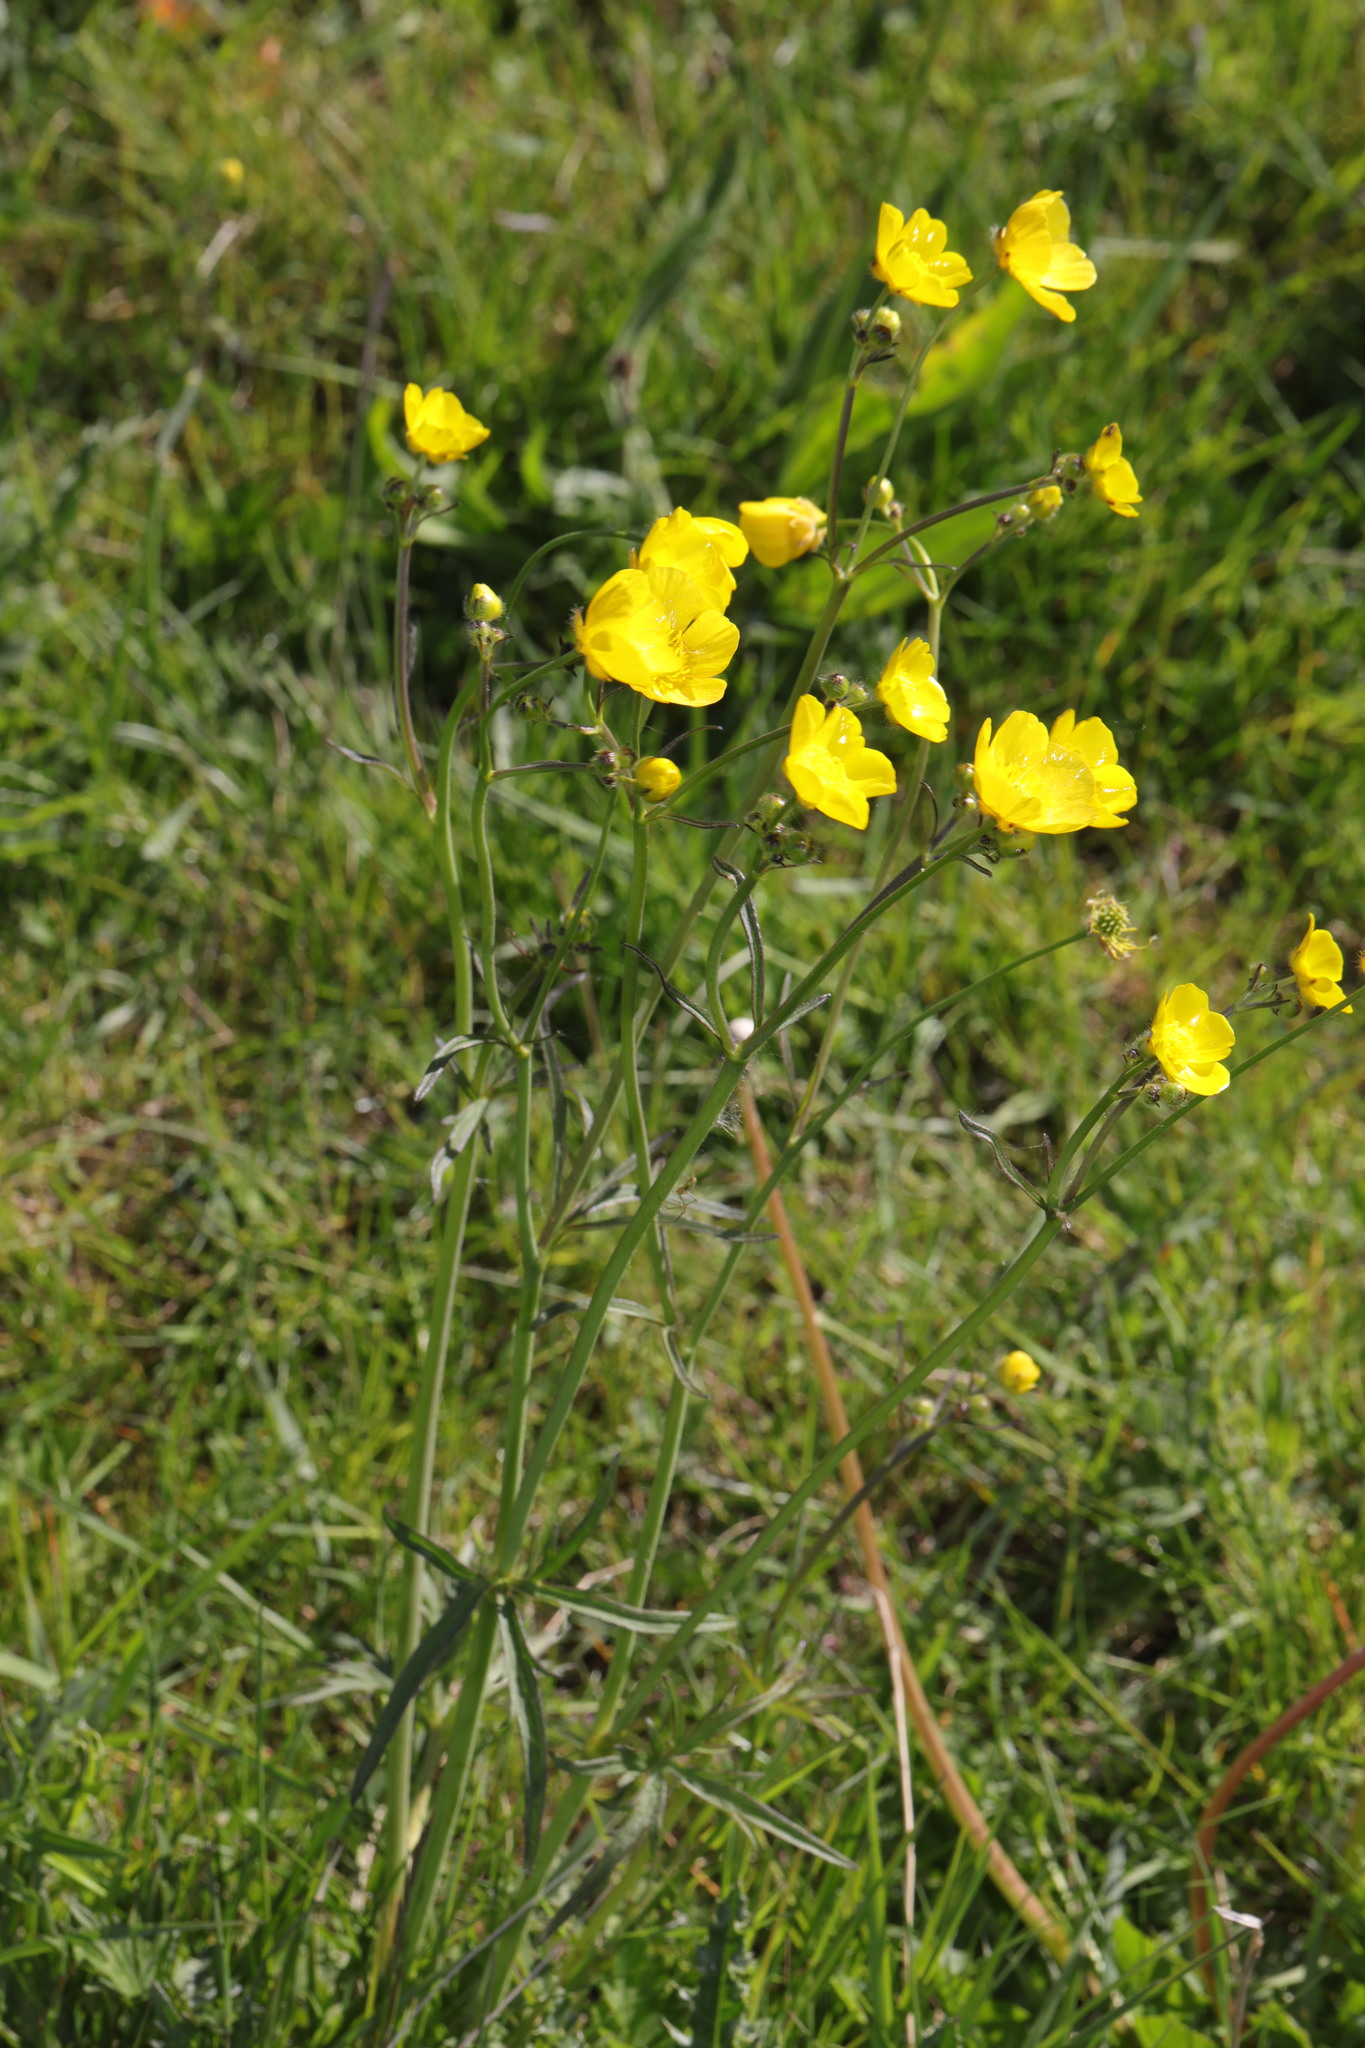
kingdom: Plantae
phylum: Tracheophyta
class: Magnoliopsida
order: Ranunculales
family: Ranunculaceae
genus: Ranunculus
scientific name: Ranunculus acris
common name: Meadow buttercup
